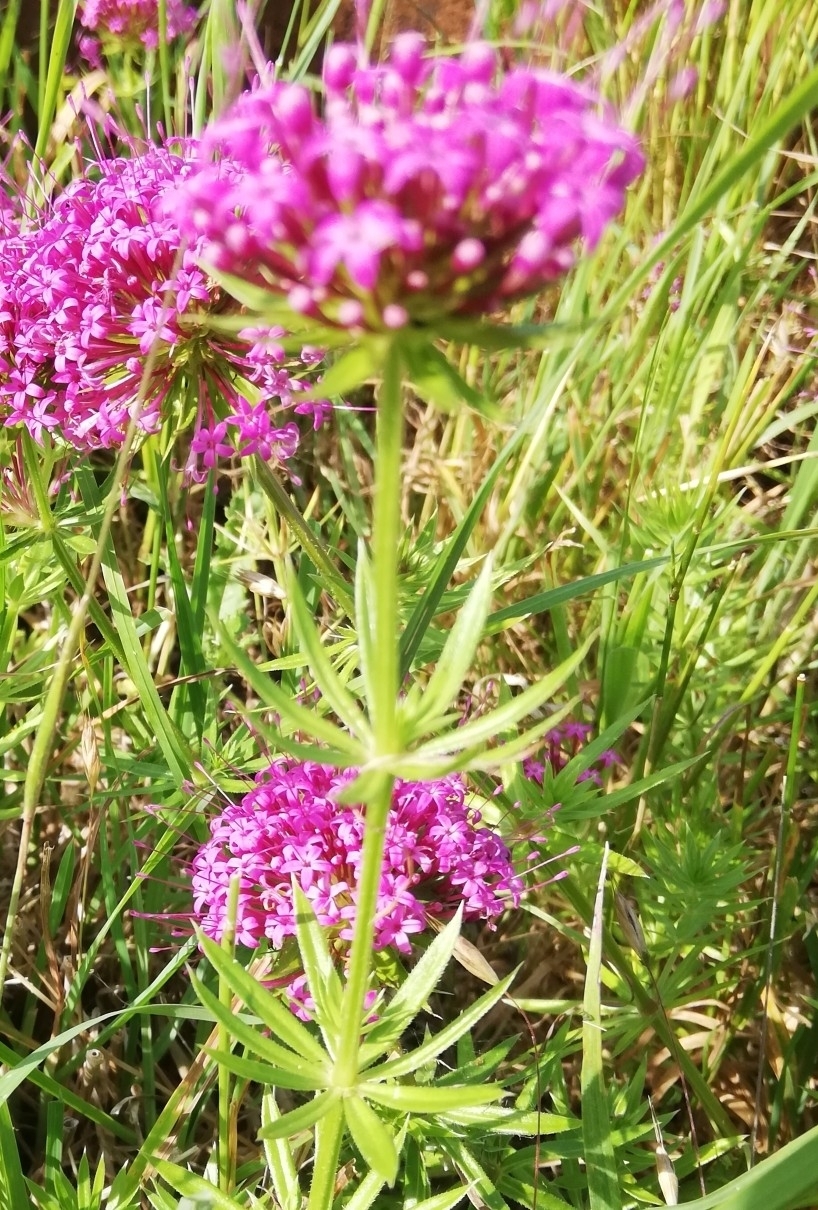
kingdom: Plantae
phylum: Tracheophyta
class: Magnoliopsida
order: Dipsacales
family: Caprifoliaceae
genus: Centranthus
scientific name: Centranthus ruber
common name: Red valerian
